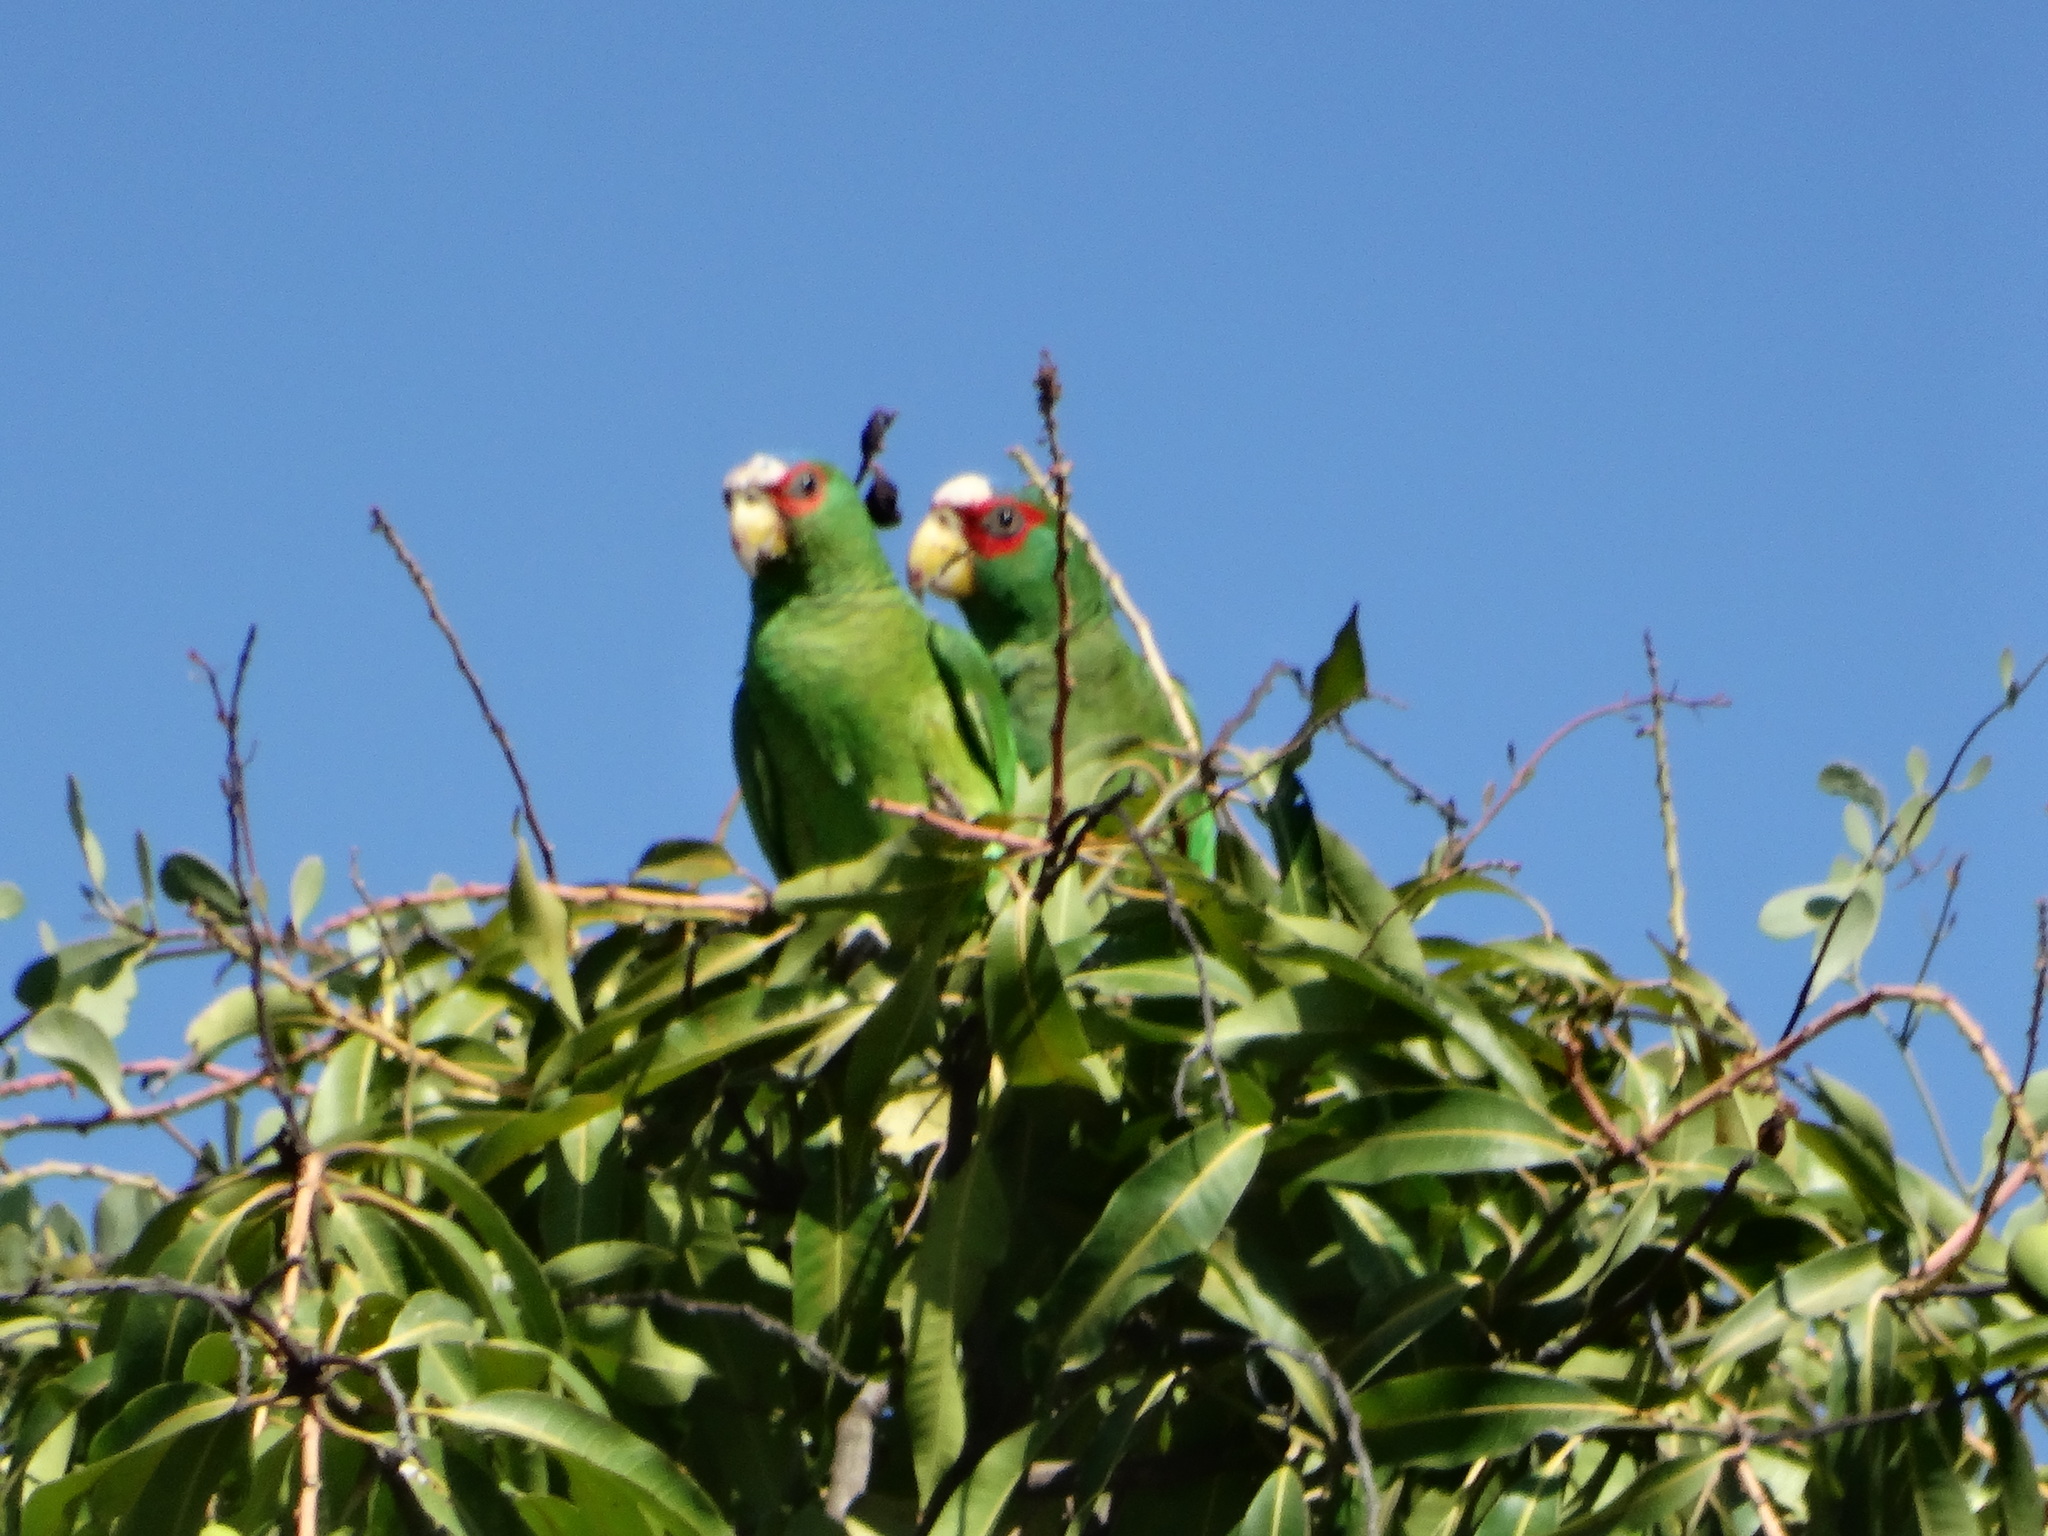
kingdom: Animalia
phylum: Chordata
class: Aves
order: Psittaciformes
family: Psittacidae
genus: Amazona
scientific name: Amazona albifrons
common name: White-fronted amazon
